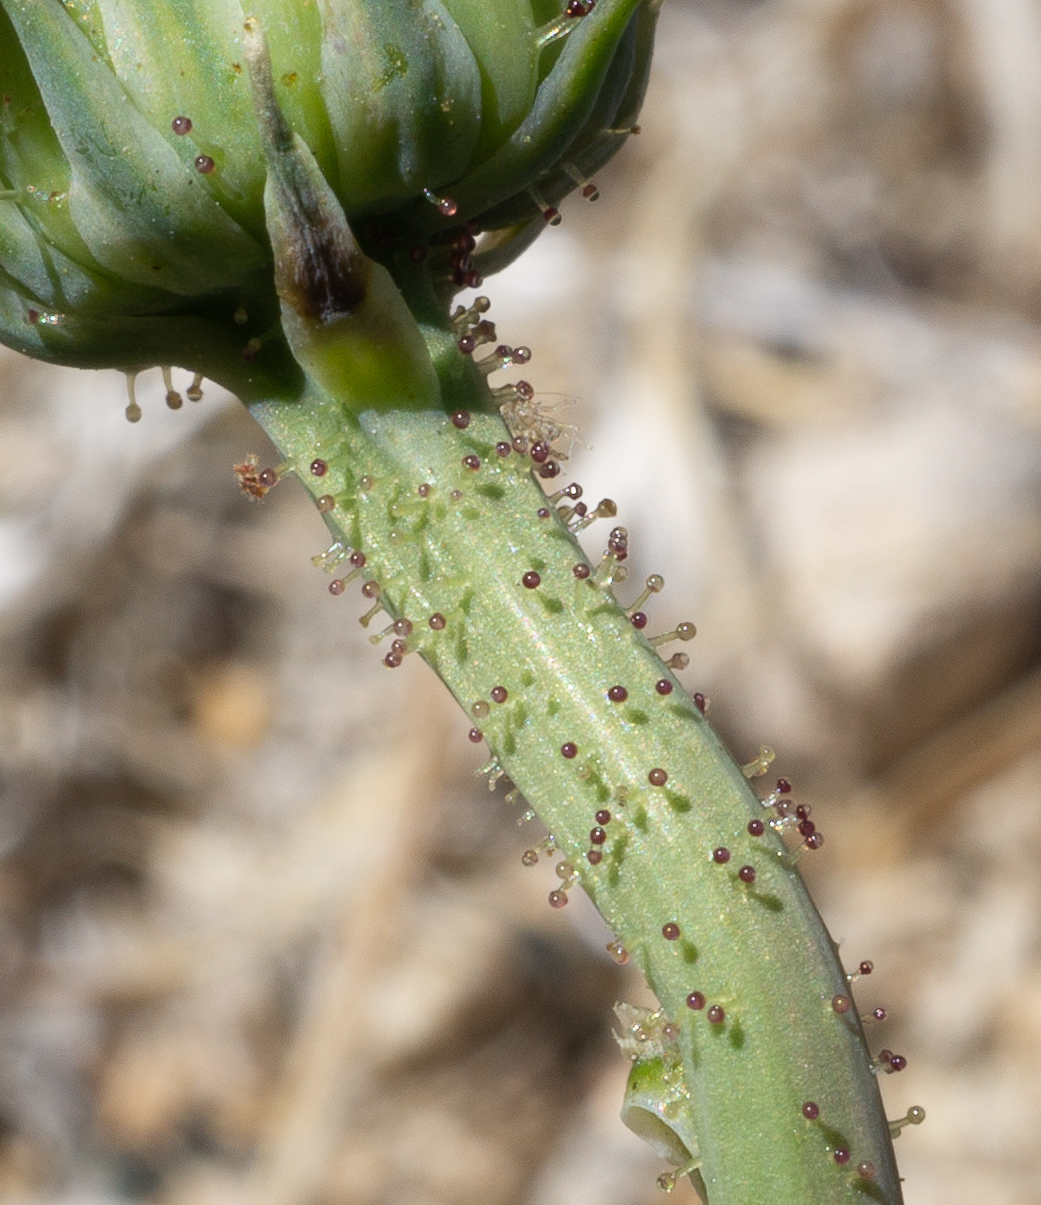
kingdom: Plantae
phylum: Tracheophyta
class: Magnoliopsida
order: Asterales
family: Asteraceae
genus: Calycoseris
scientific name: Calycoseris parryi
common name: Yellow tackstem
